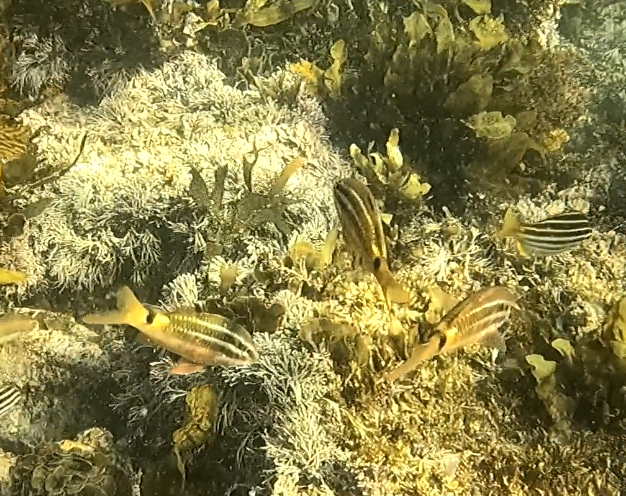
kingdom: Animalia
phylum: Chordata
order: Perciformes
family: Mullidae
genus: Parupeneus
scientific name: Parupeneus spilurus
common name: Blackspot goatfish
